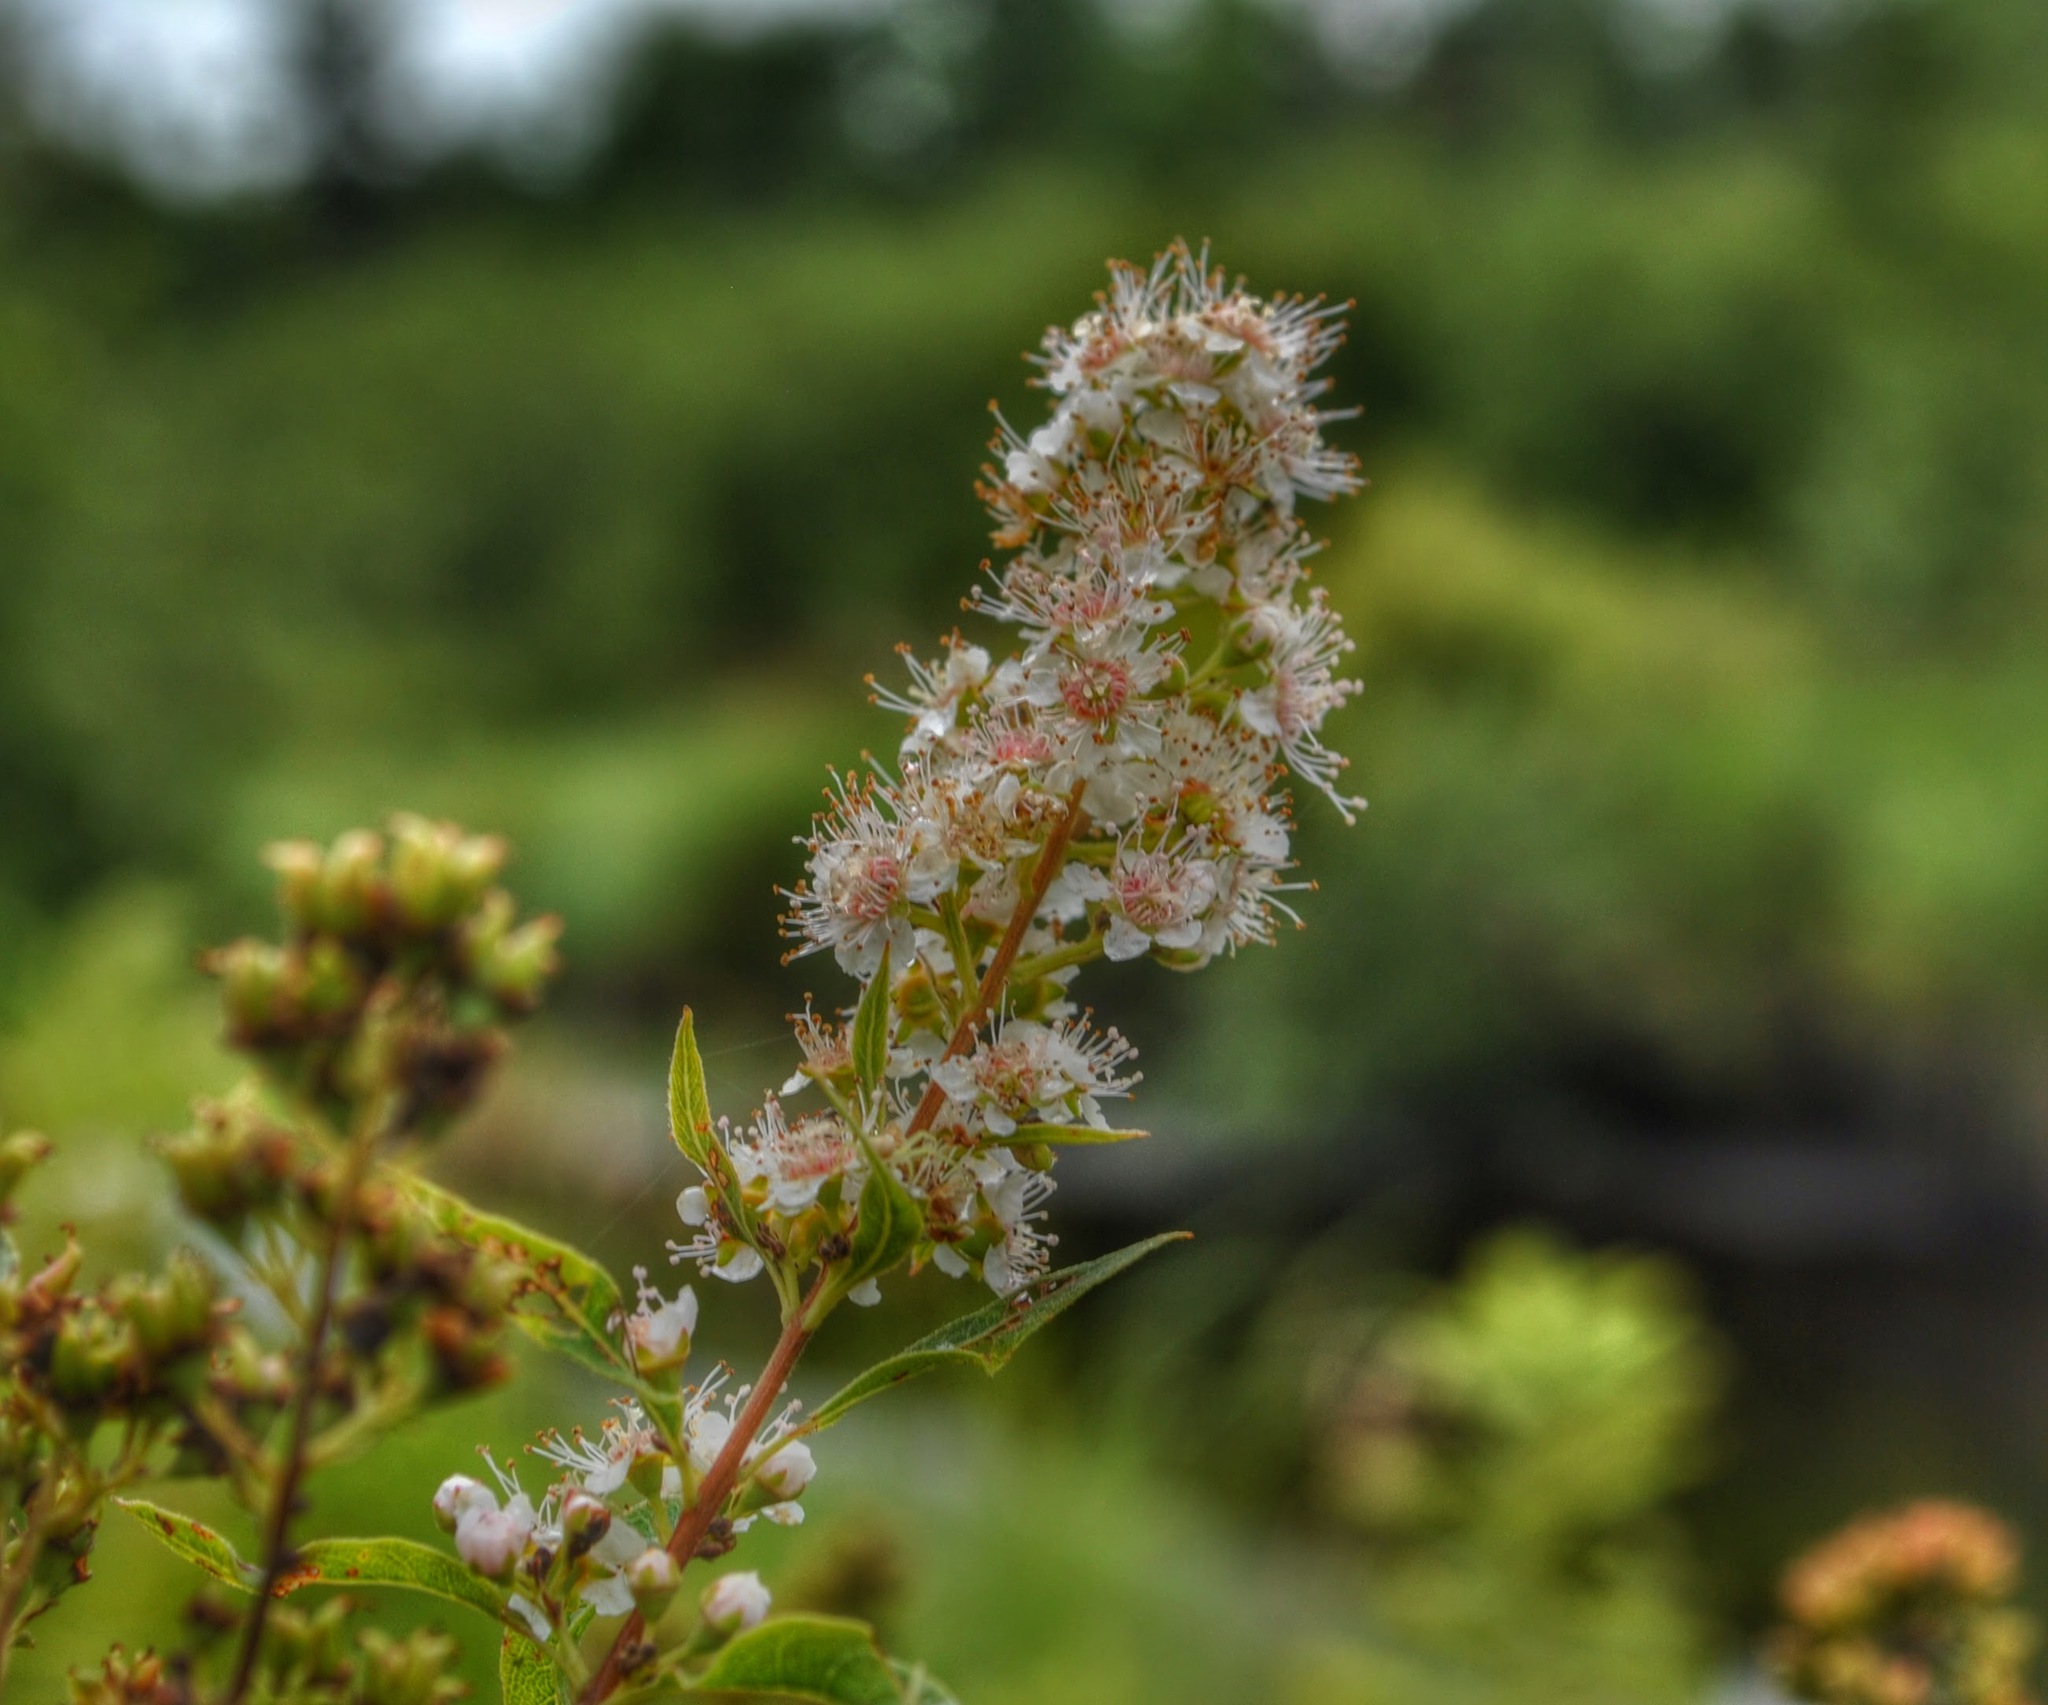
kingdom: Plantae
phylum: Tracheophyta
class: Magnoliopsida
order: Rosales
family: Rosaceae
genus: Spiraea
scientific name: Spiraea alba
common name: Pale bridewort
